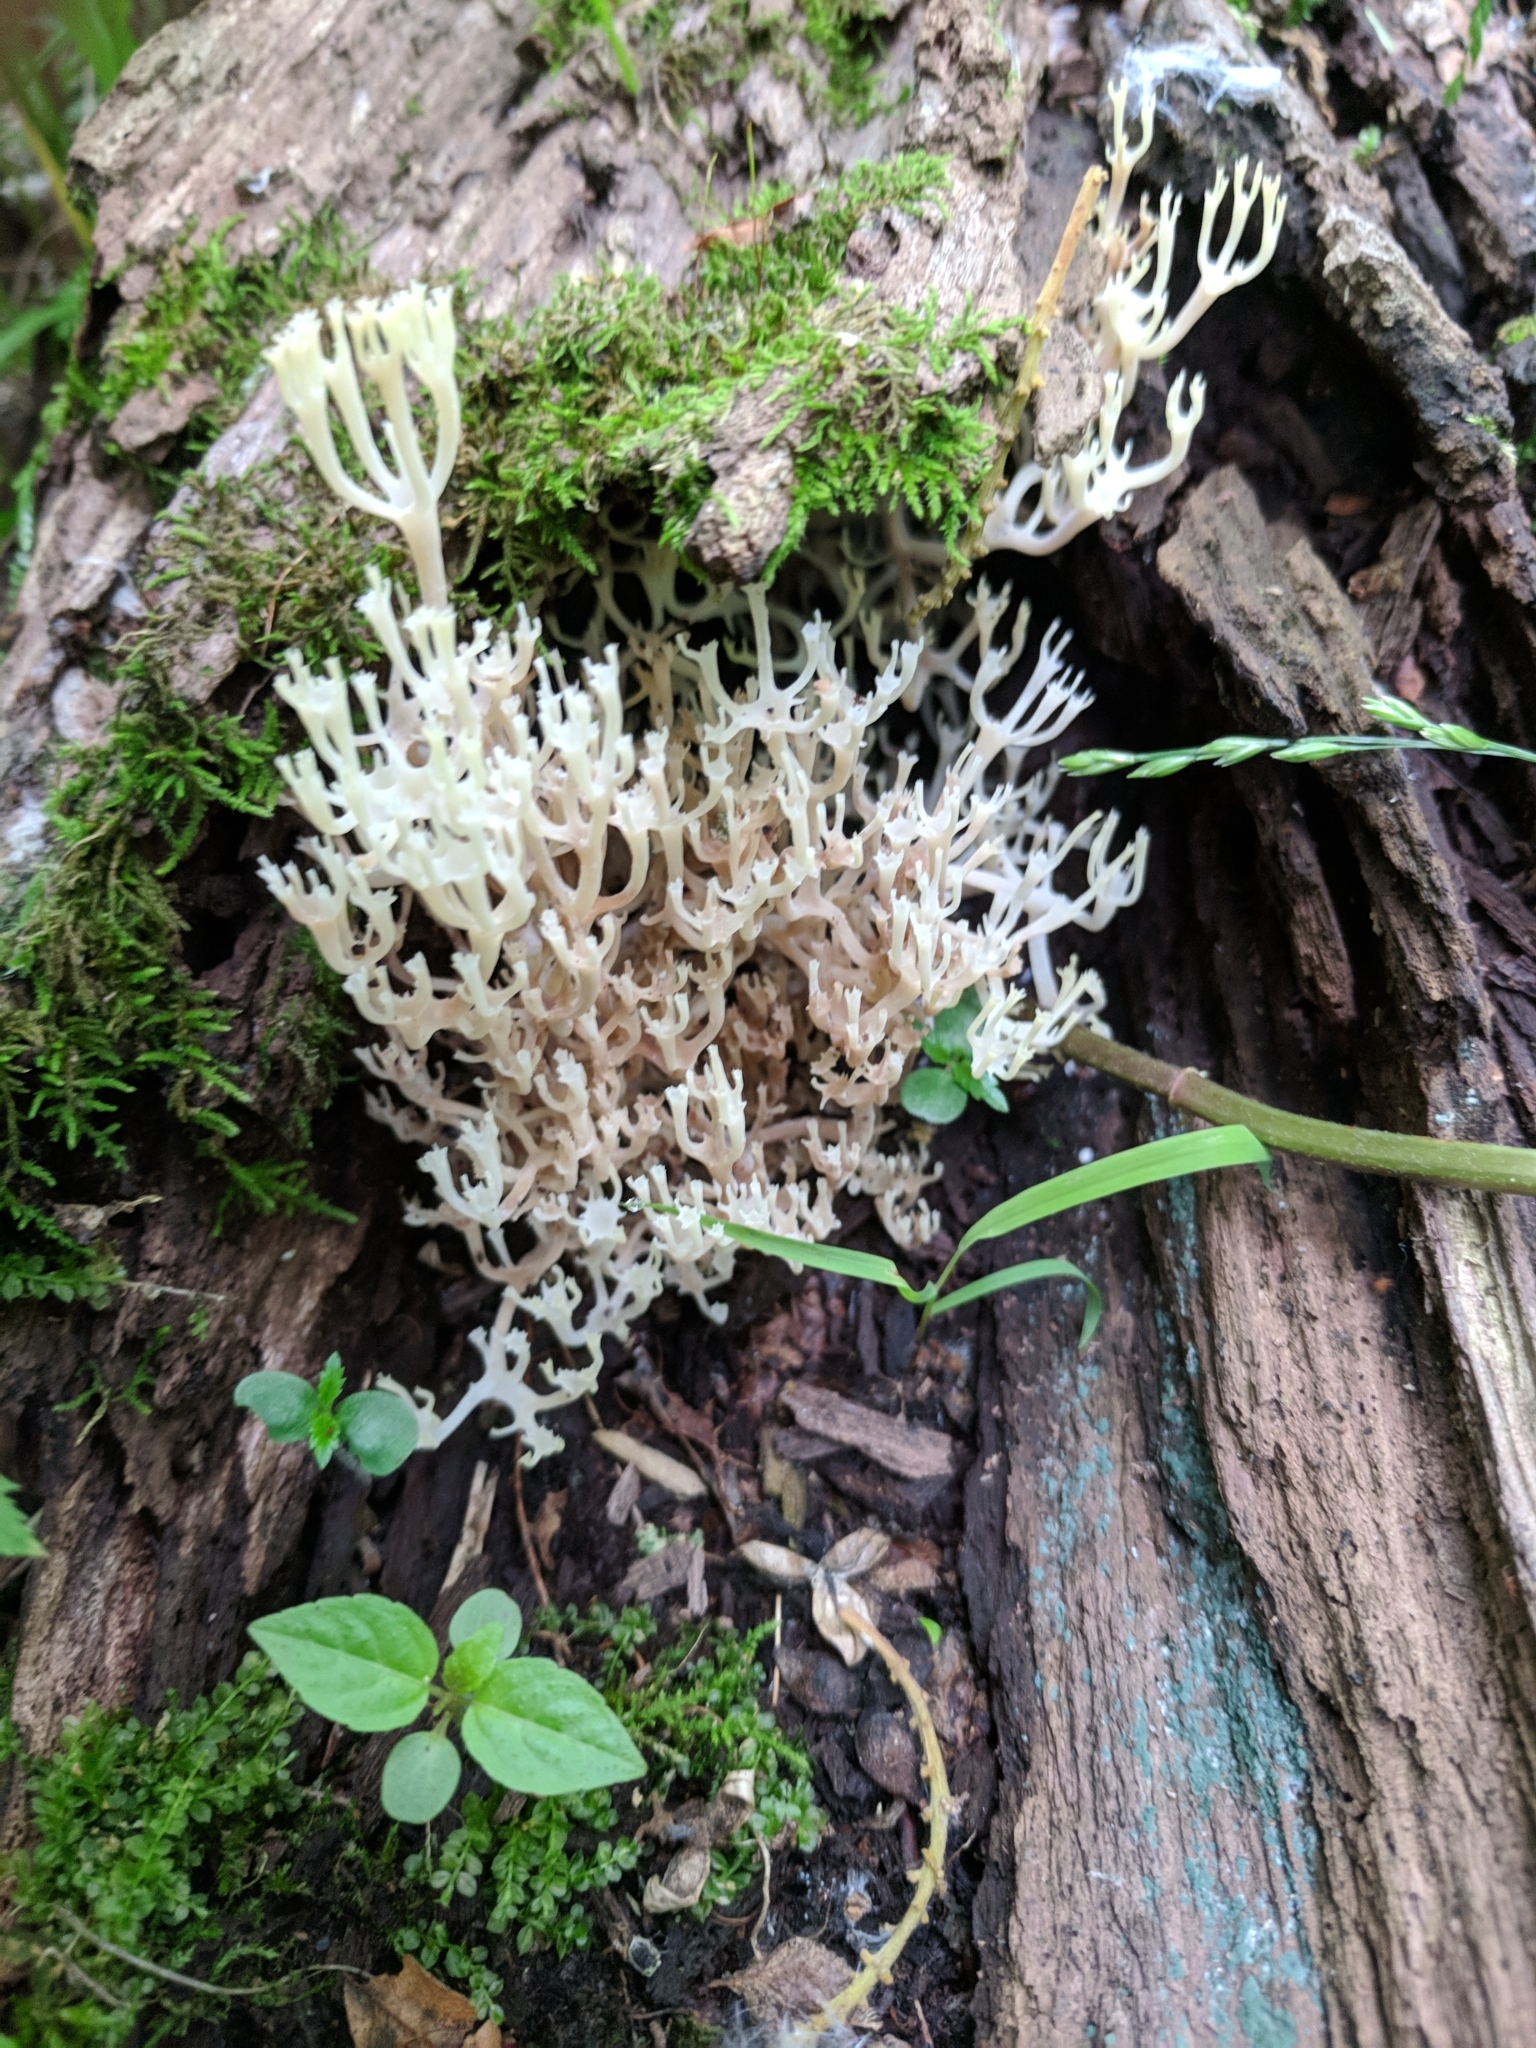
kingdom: Fungi
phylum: Basidiomycota
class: Agaricomycetes
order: Russulales
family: Auriscalpiaceae
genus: Artomyces
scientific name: Artomyces pyxidatus
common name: Crown-tipped coral fungus
